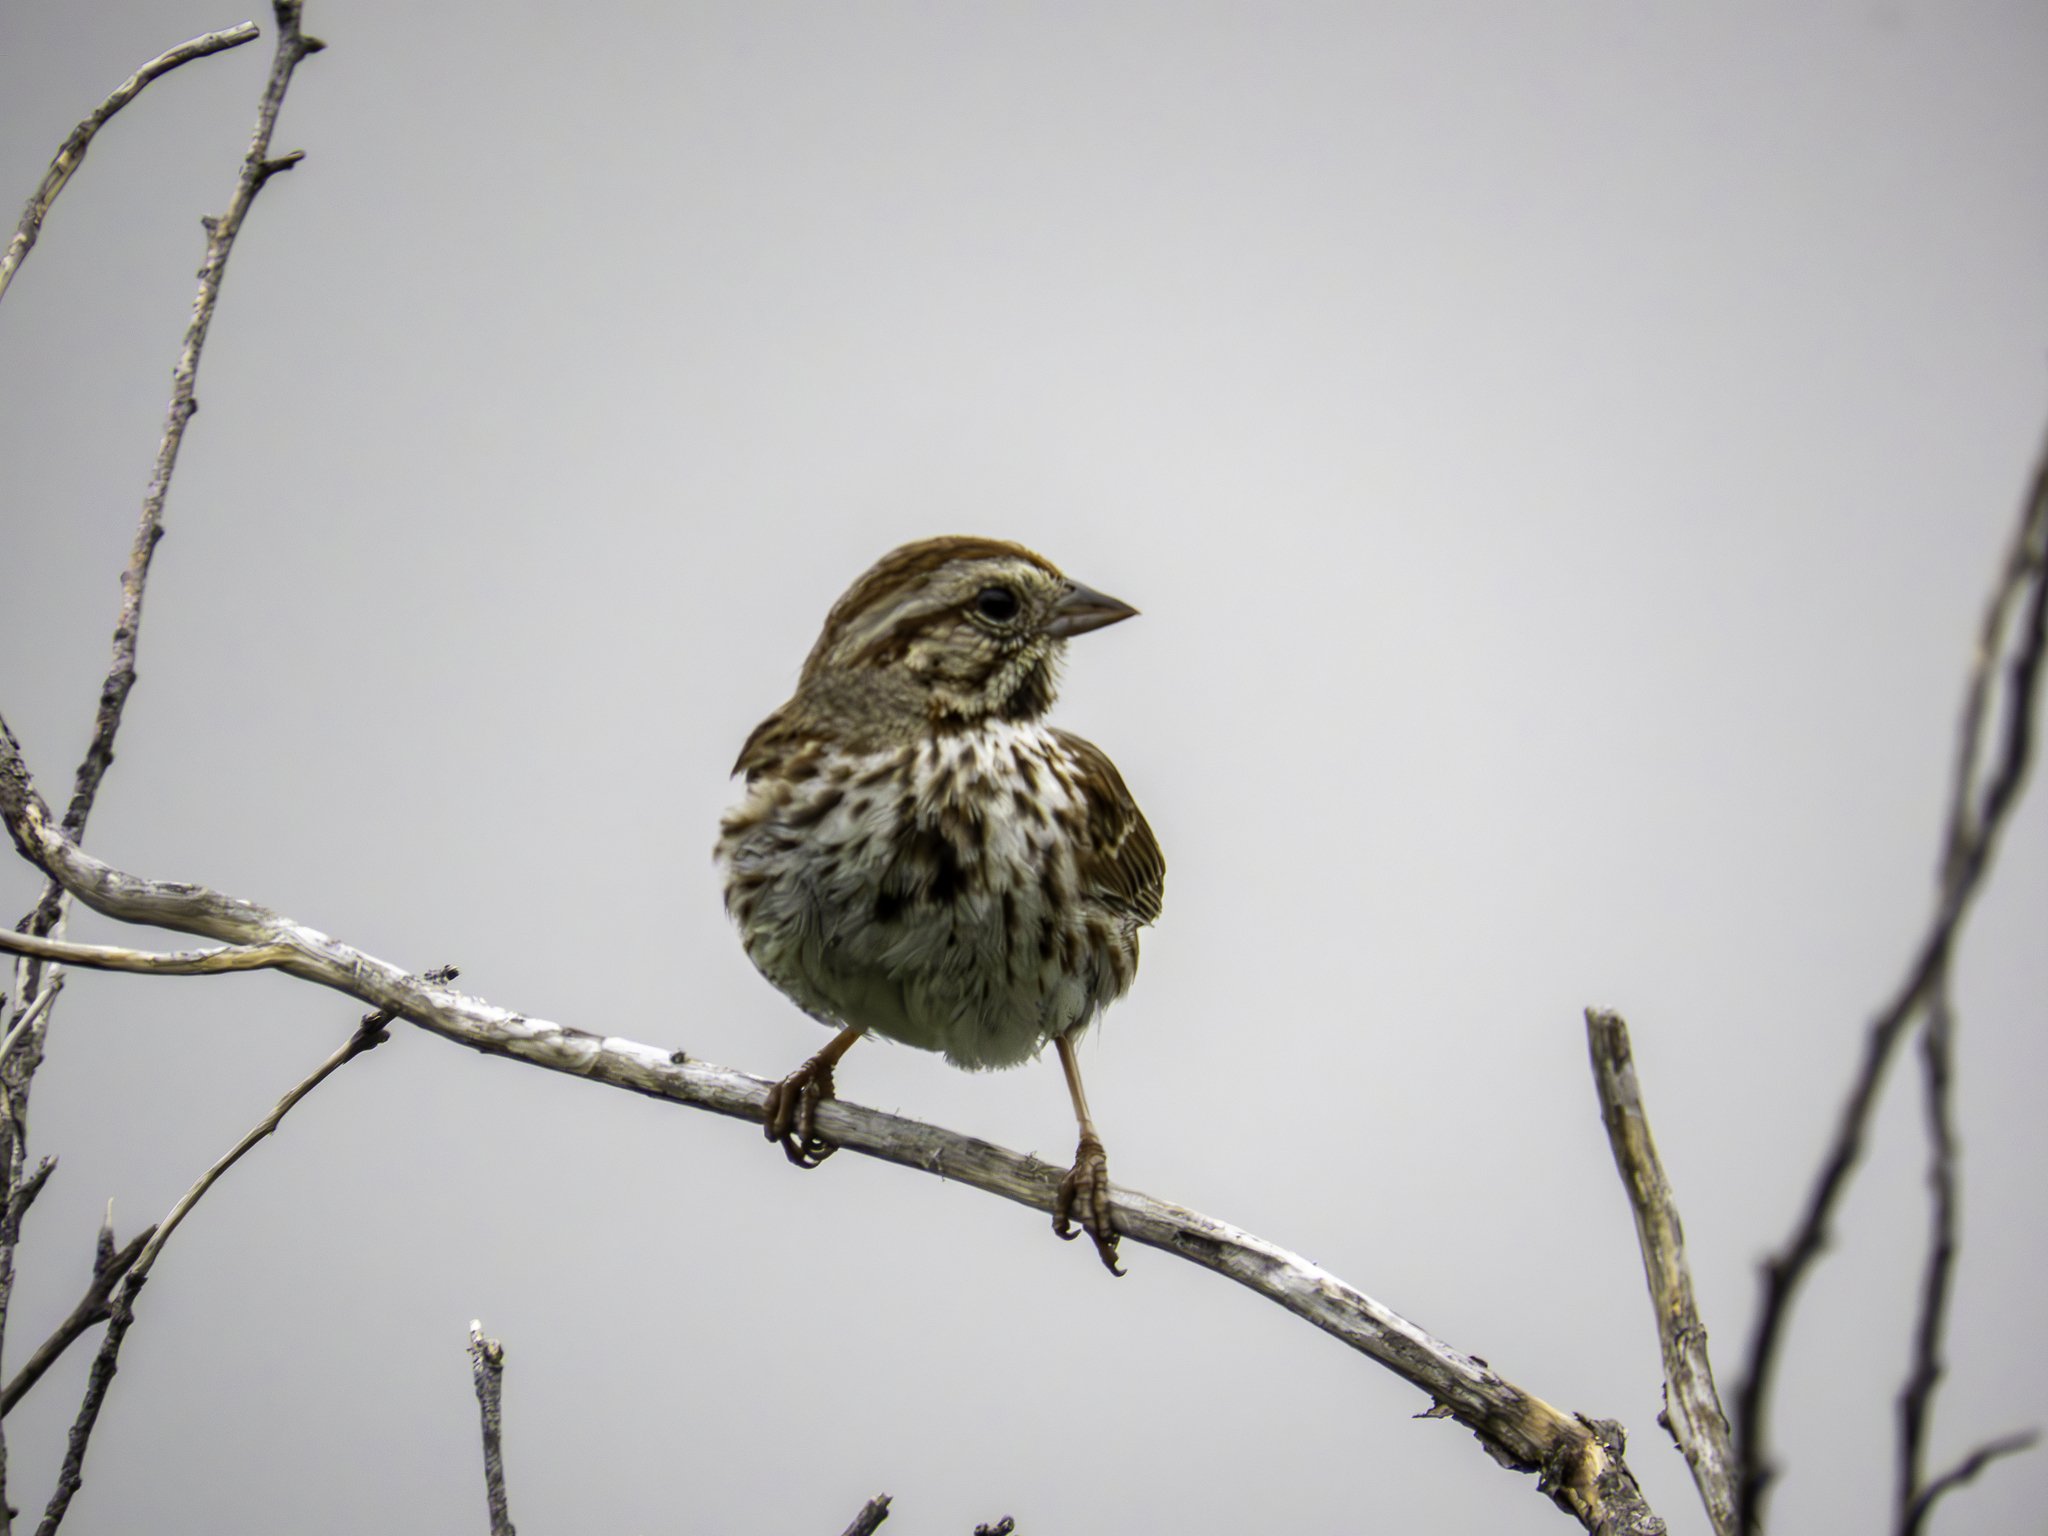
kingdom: Animalia
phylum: Chordata
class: Aves
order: Passeriformes
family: Passerellidae
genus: Melospiza
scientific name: Melospiza melodia
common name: Song sparrow
